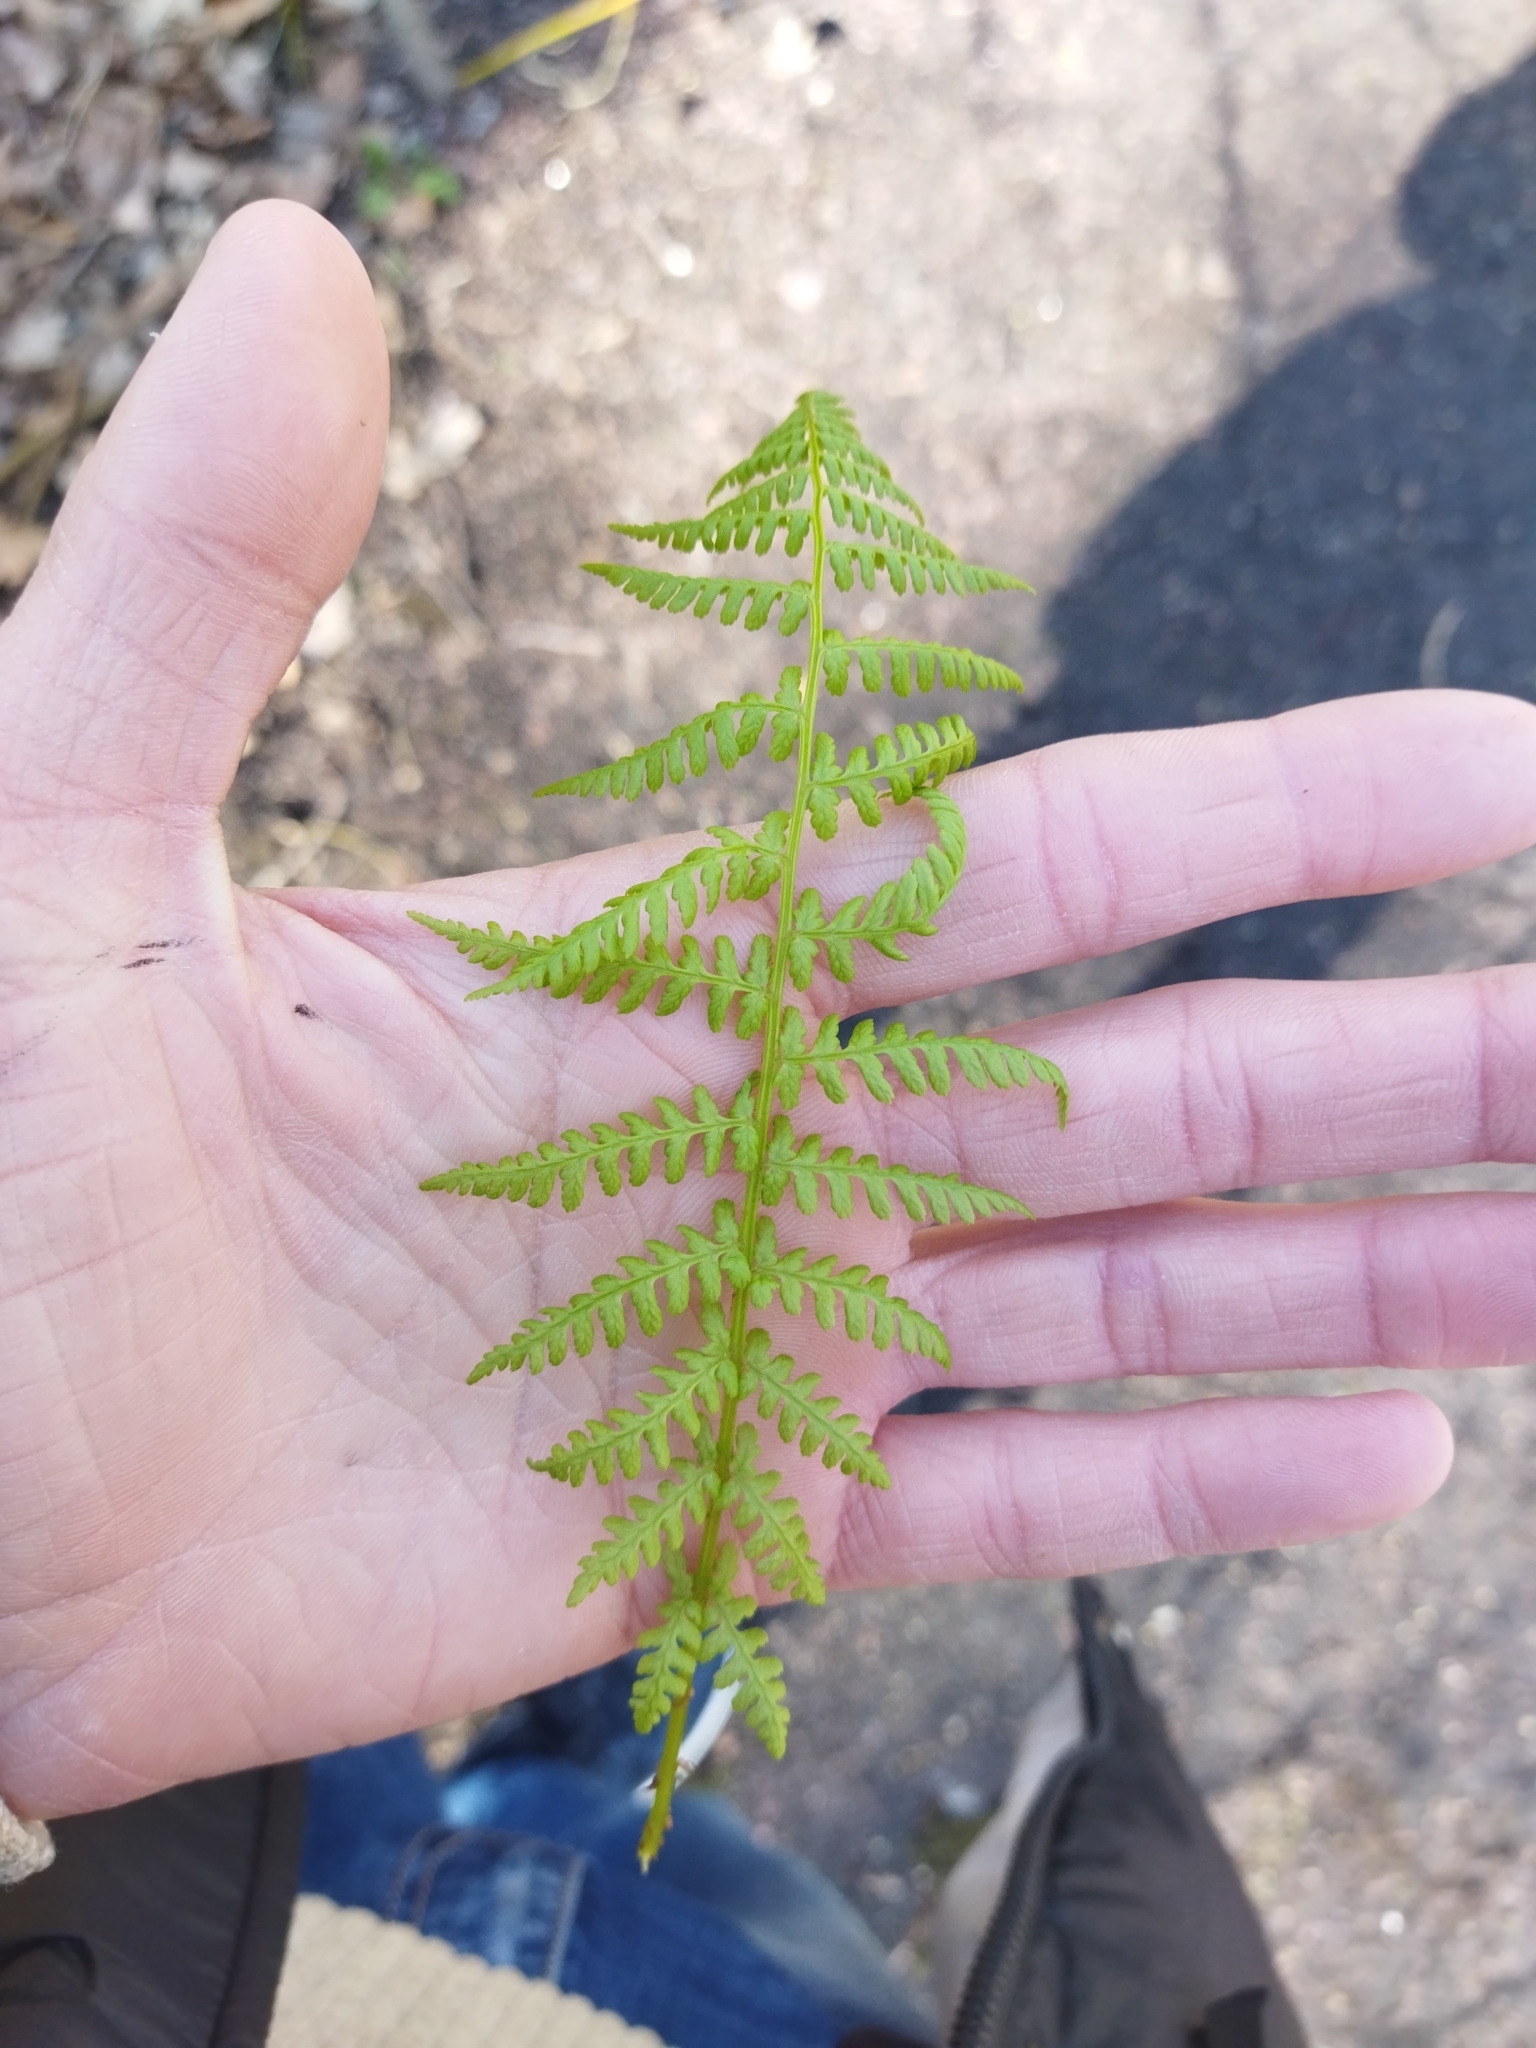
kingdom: Plantae
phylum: Tracheophyta
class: Polypodiopsida
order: Polypodiales
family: Athyriaceae
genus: Athyrium
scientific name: Athyrium filix-femina
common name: Lady fern
